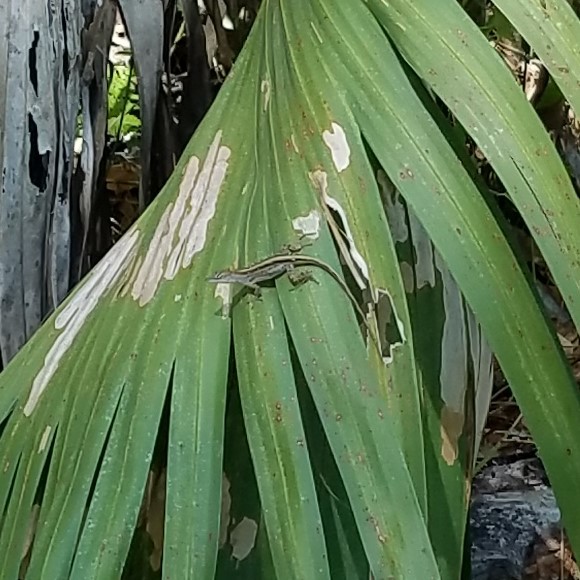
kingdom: Animalia
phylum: Chordata
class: Squamata
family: Dactyloidae
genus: Anolis
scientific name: Anolis sagrei
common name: Brown anole
